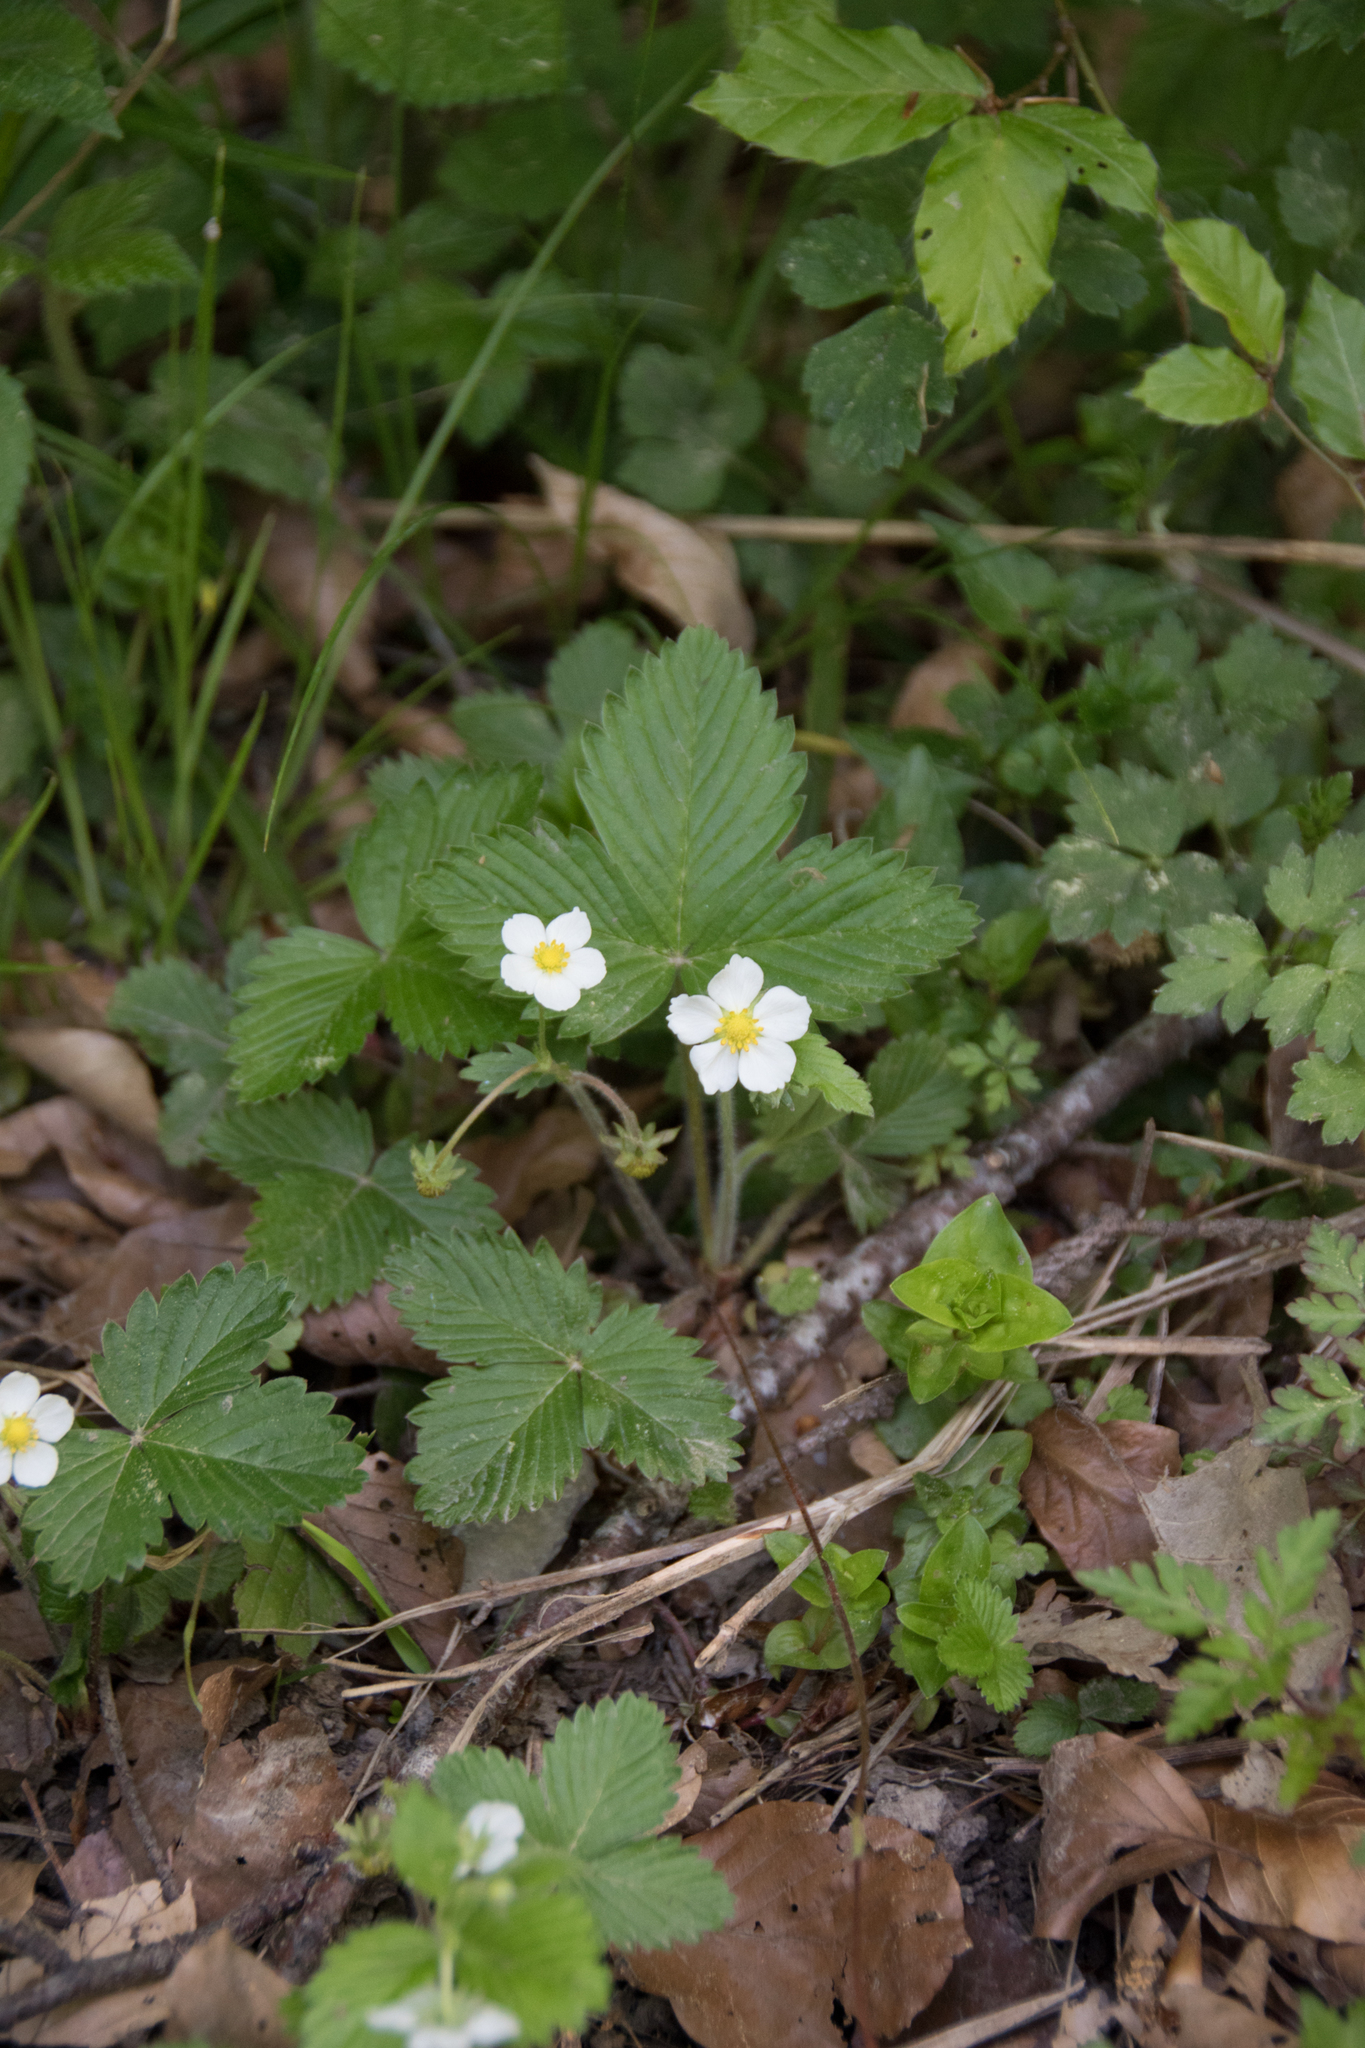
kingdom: Plantae
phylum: Tracheophyta
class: Magnoliopsida
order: Rosales
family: Rosaceae
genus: Fragaria
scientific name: Fragaria vesca
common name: Wild strawberry
